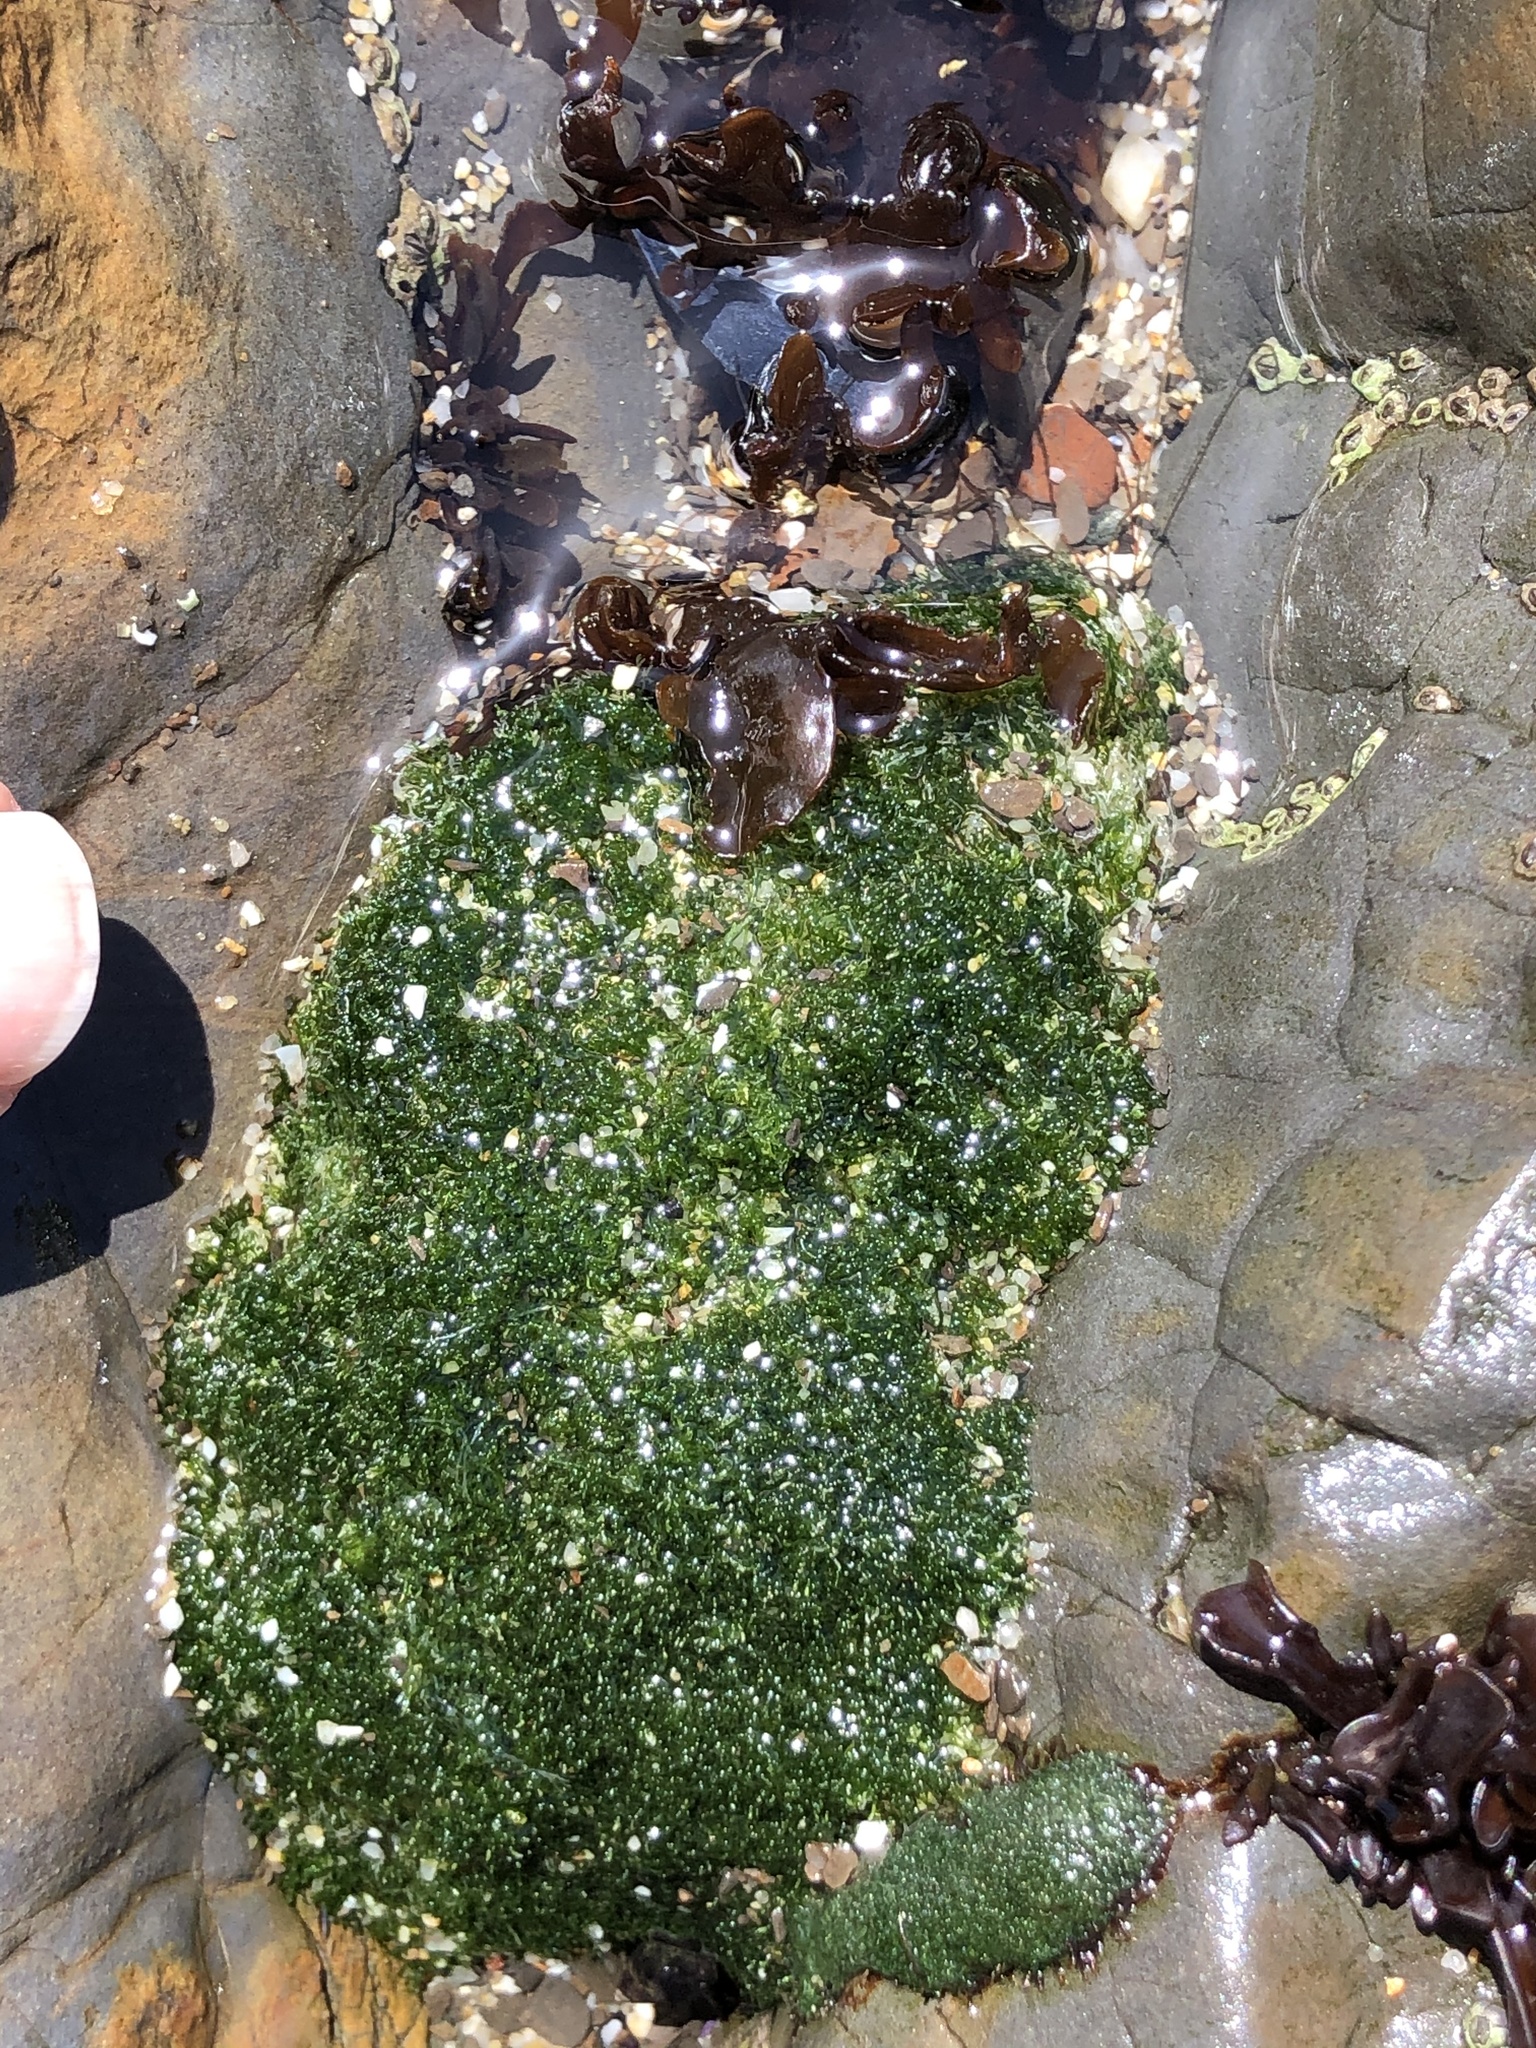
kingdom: Plantae
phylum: Chlorophyta
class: Ulvophyceae
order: Cladophorales
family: Cladophoraceae
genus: Cladophora
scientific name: Cladophora columbiana
